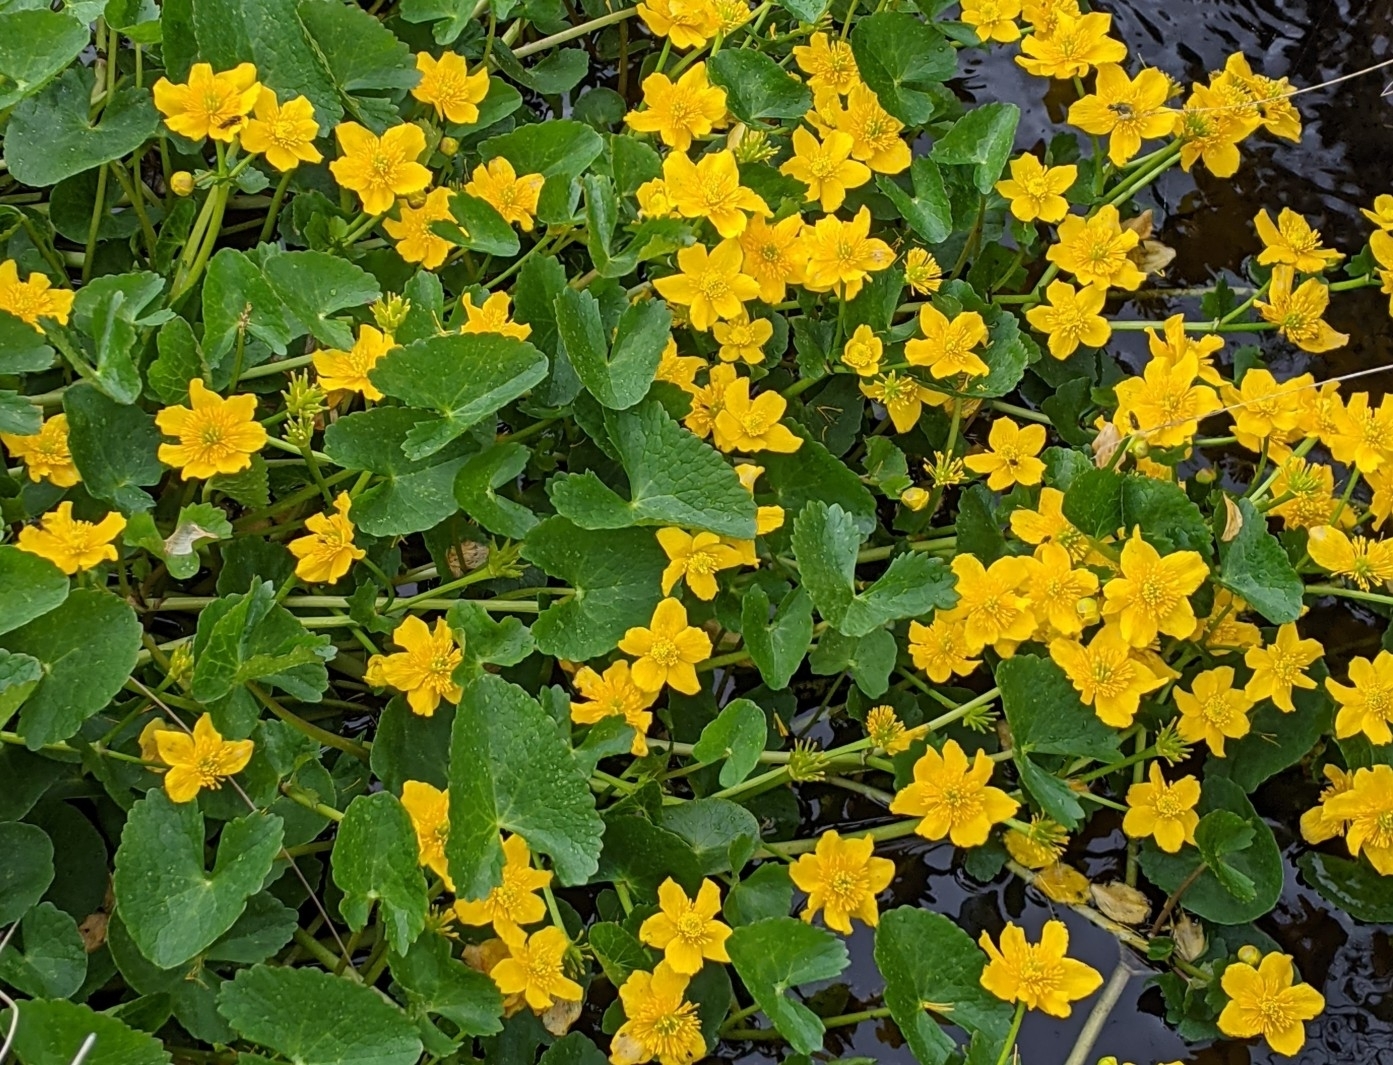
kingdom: Plantae
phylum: Tracheophyta
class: Magnoliopsida
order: Ranunculales
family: Ranunculaceae
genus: Caltha
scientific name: Caltha palustris
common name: Marsh marigold
